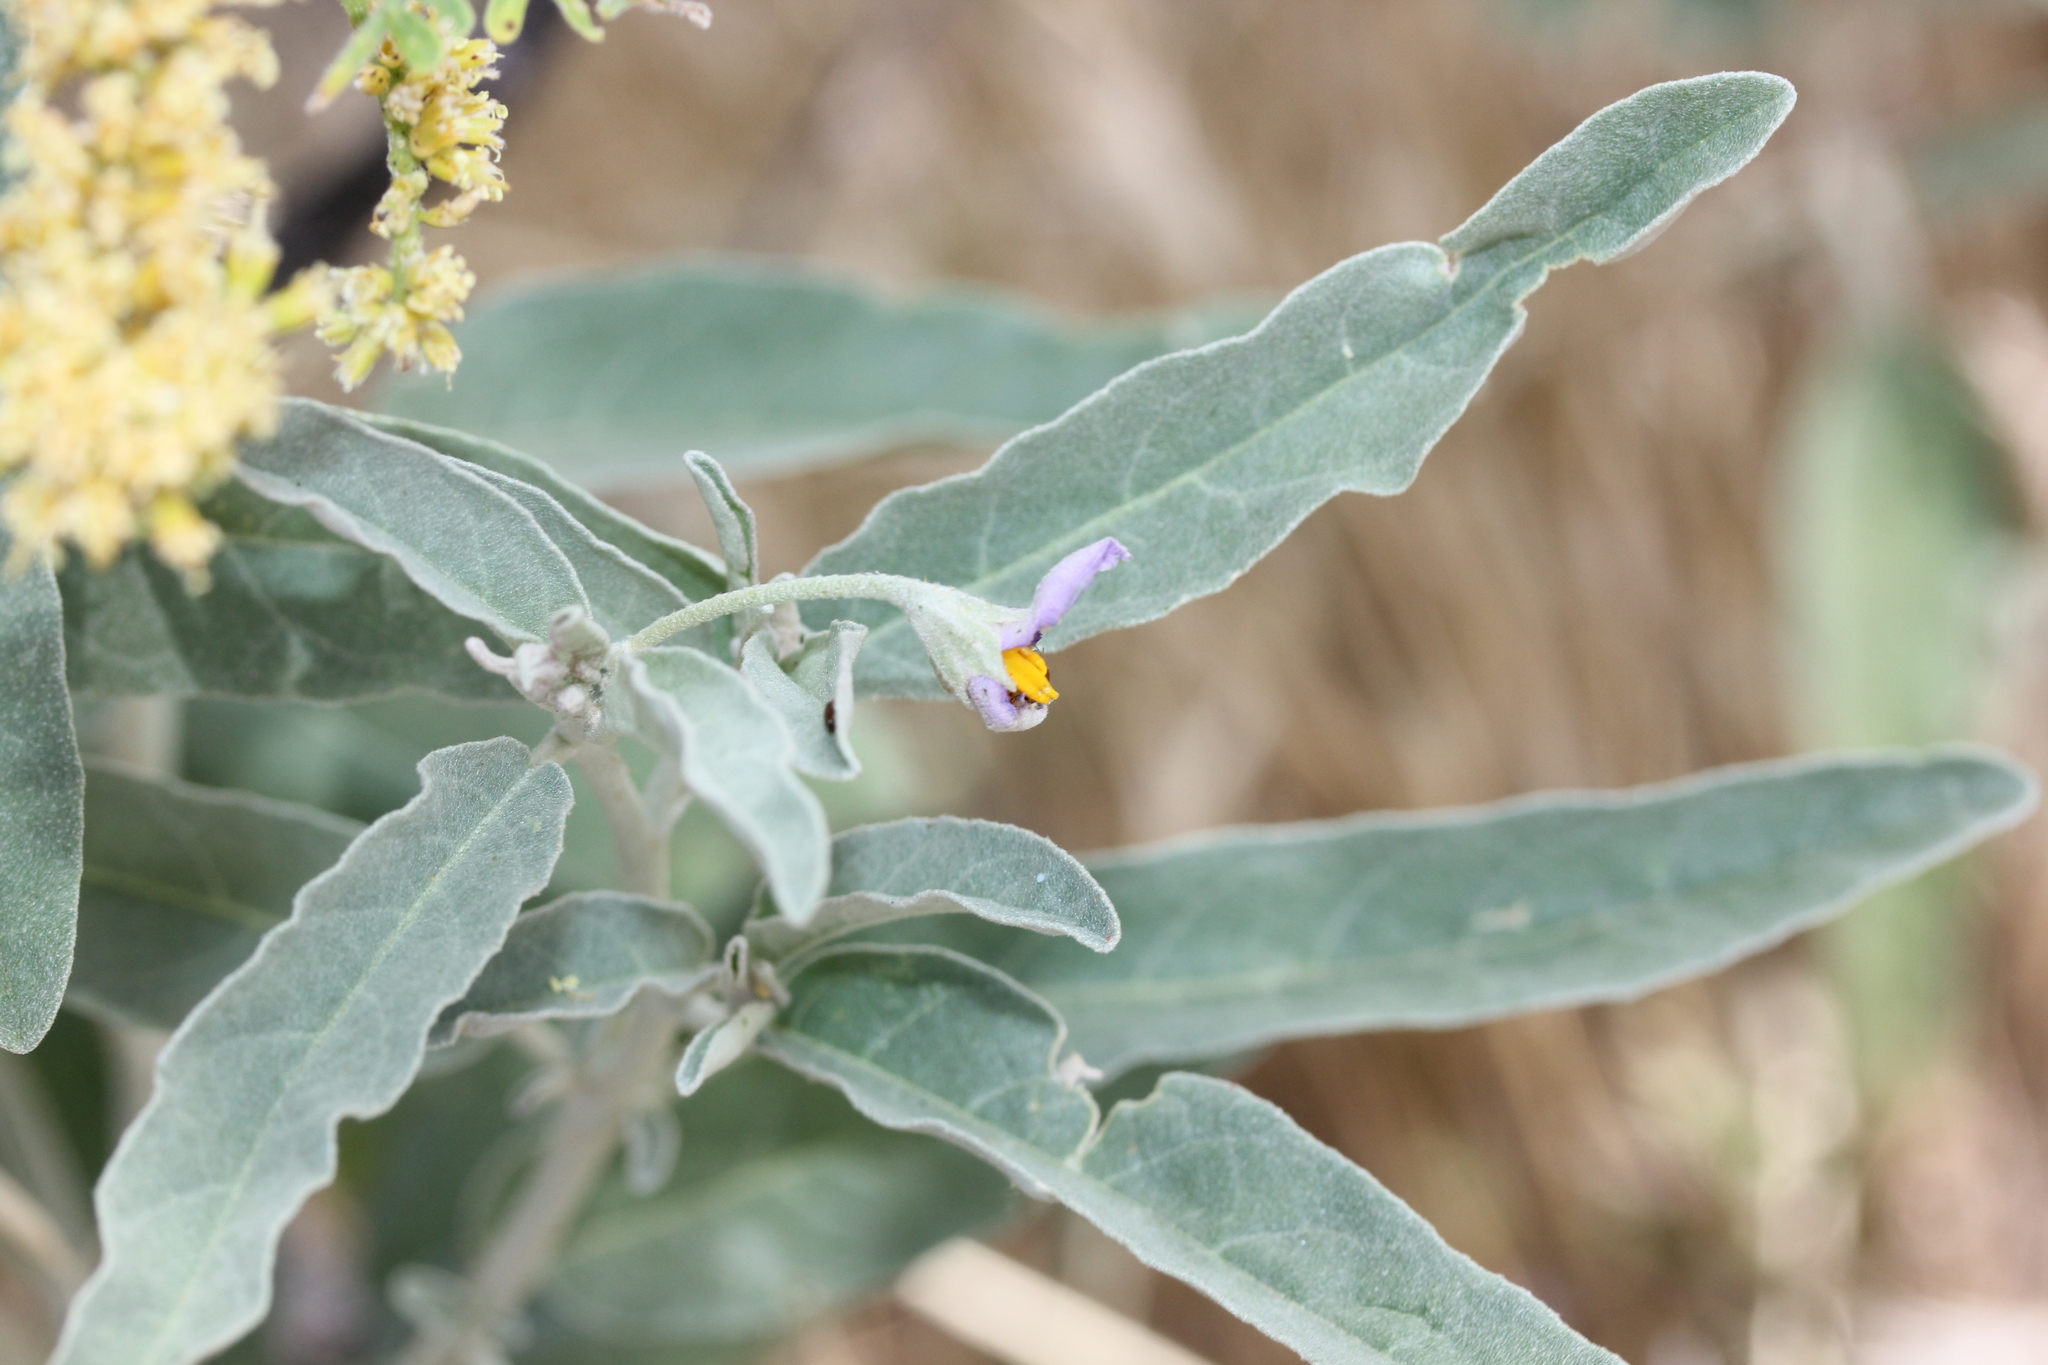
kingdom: Plantae
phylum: Tracheophyta
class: Magnoliopsida
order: Solanales
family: Solanaceae
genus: Solanum
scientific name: Solanum elaeagnifolium
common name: Silverleaf nightshade
